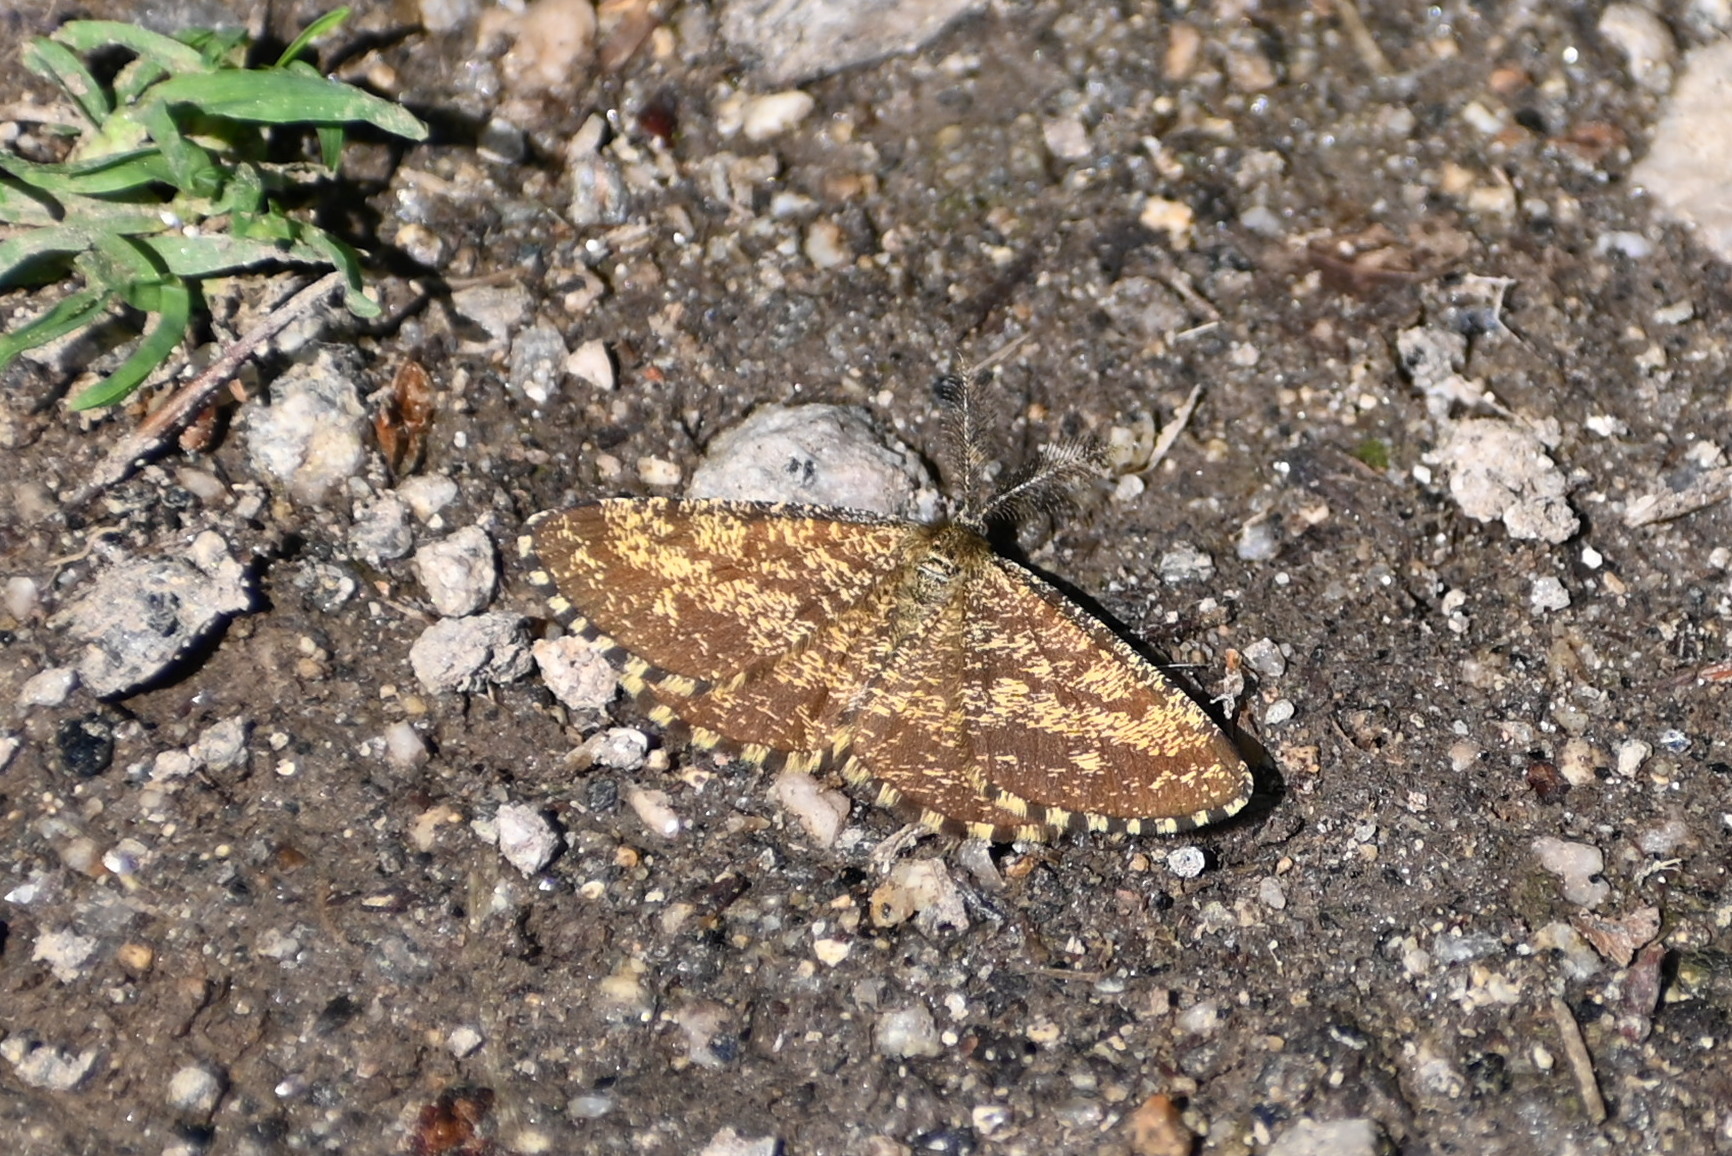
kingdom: Animalia
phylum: Arthropoda
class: Insecta
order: Lepidoptera
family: Geometridae
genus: Ematurga
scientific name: Ematurga atomaria
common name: Common heath
